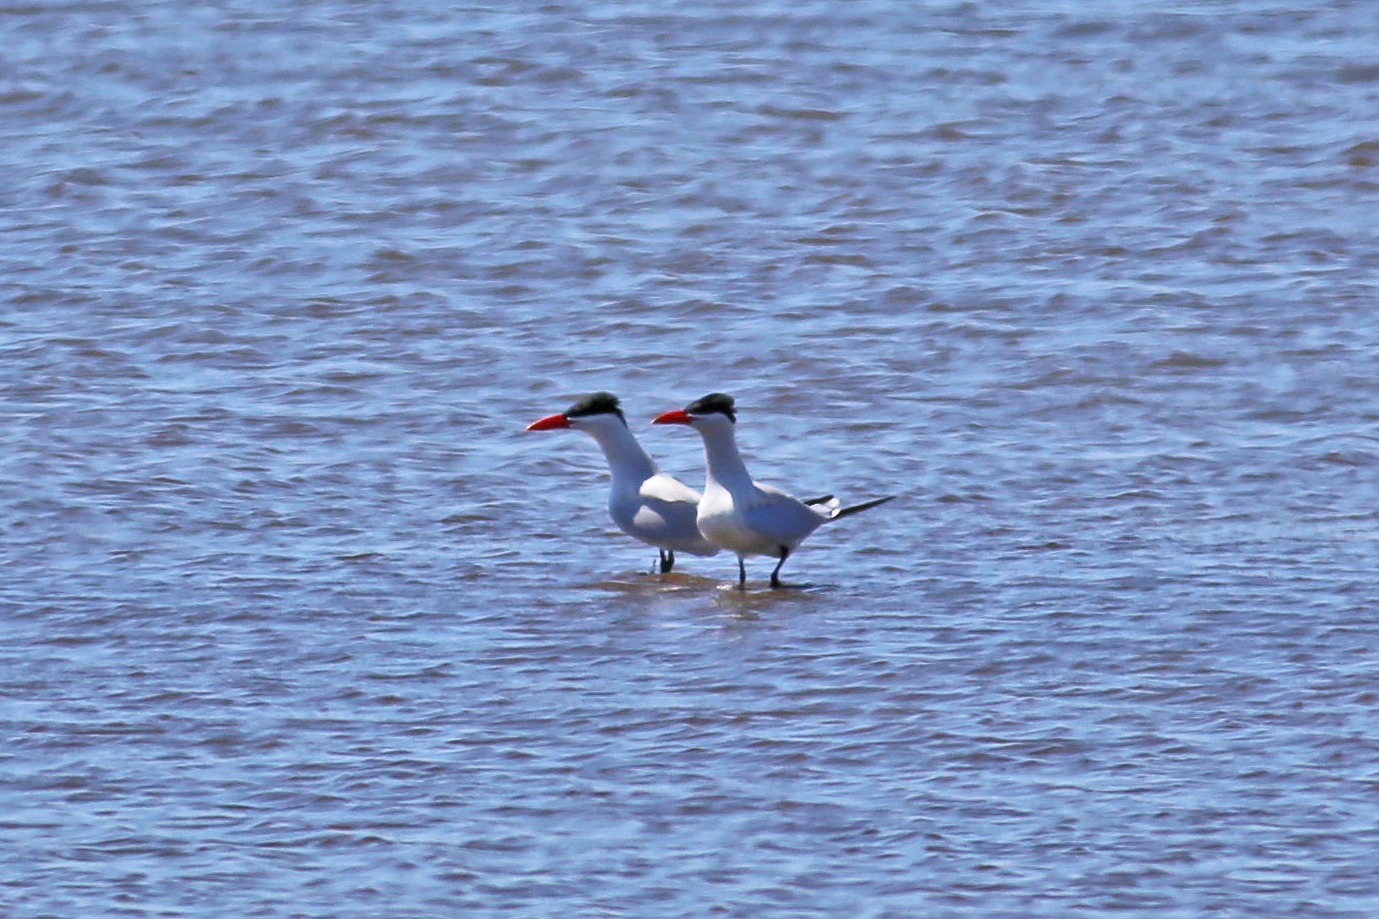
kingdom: Animalia
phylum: Chordata
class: Aves
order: Charadriiformes
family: Laridae
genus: Hydroprogne
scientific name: Hydroprogne caspia
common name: Caspian tern
